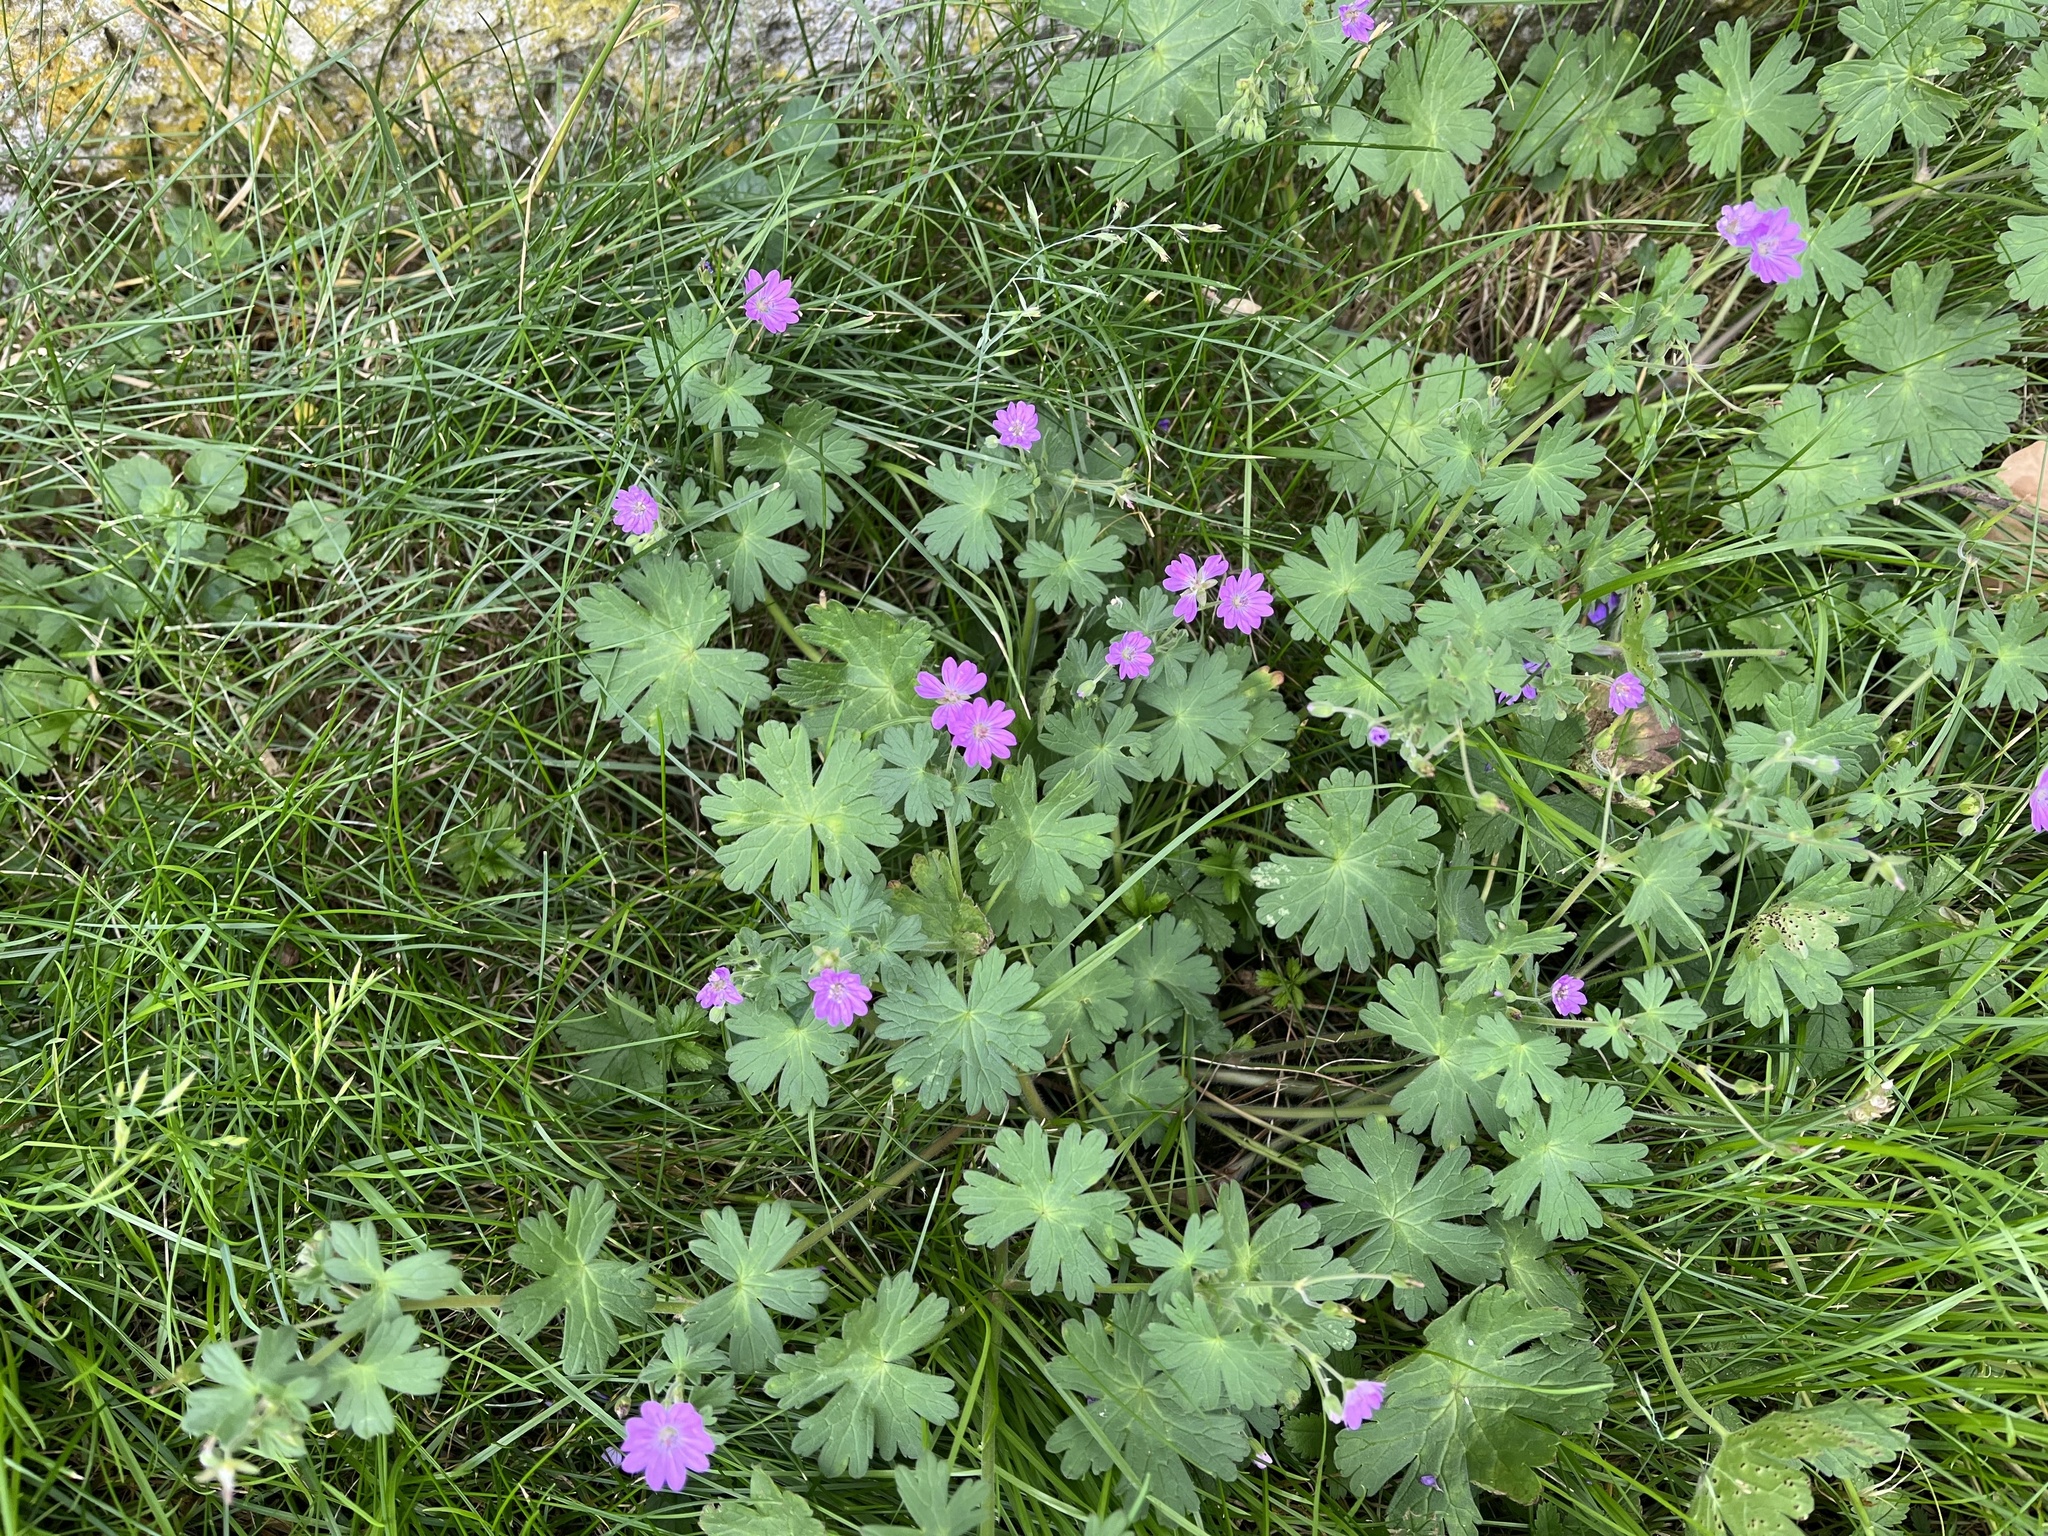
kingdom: Plantae
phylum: Tracheophyta
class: Magnoliopsida
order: Geraniales
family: Geraniaceae
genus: Geranium
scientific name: Geranium pyrenaicum
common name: Hedgerow crane's-bill
